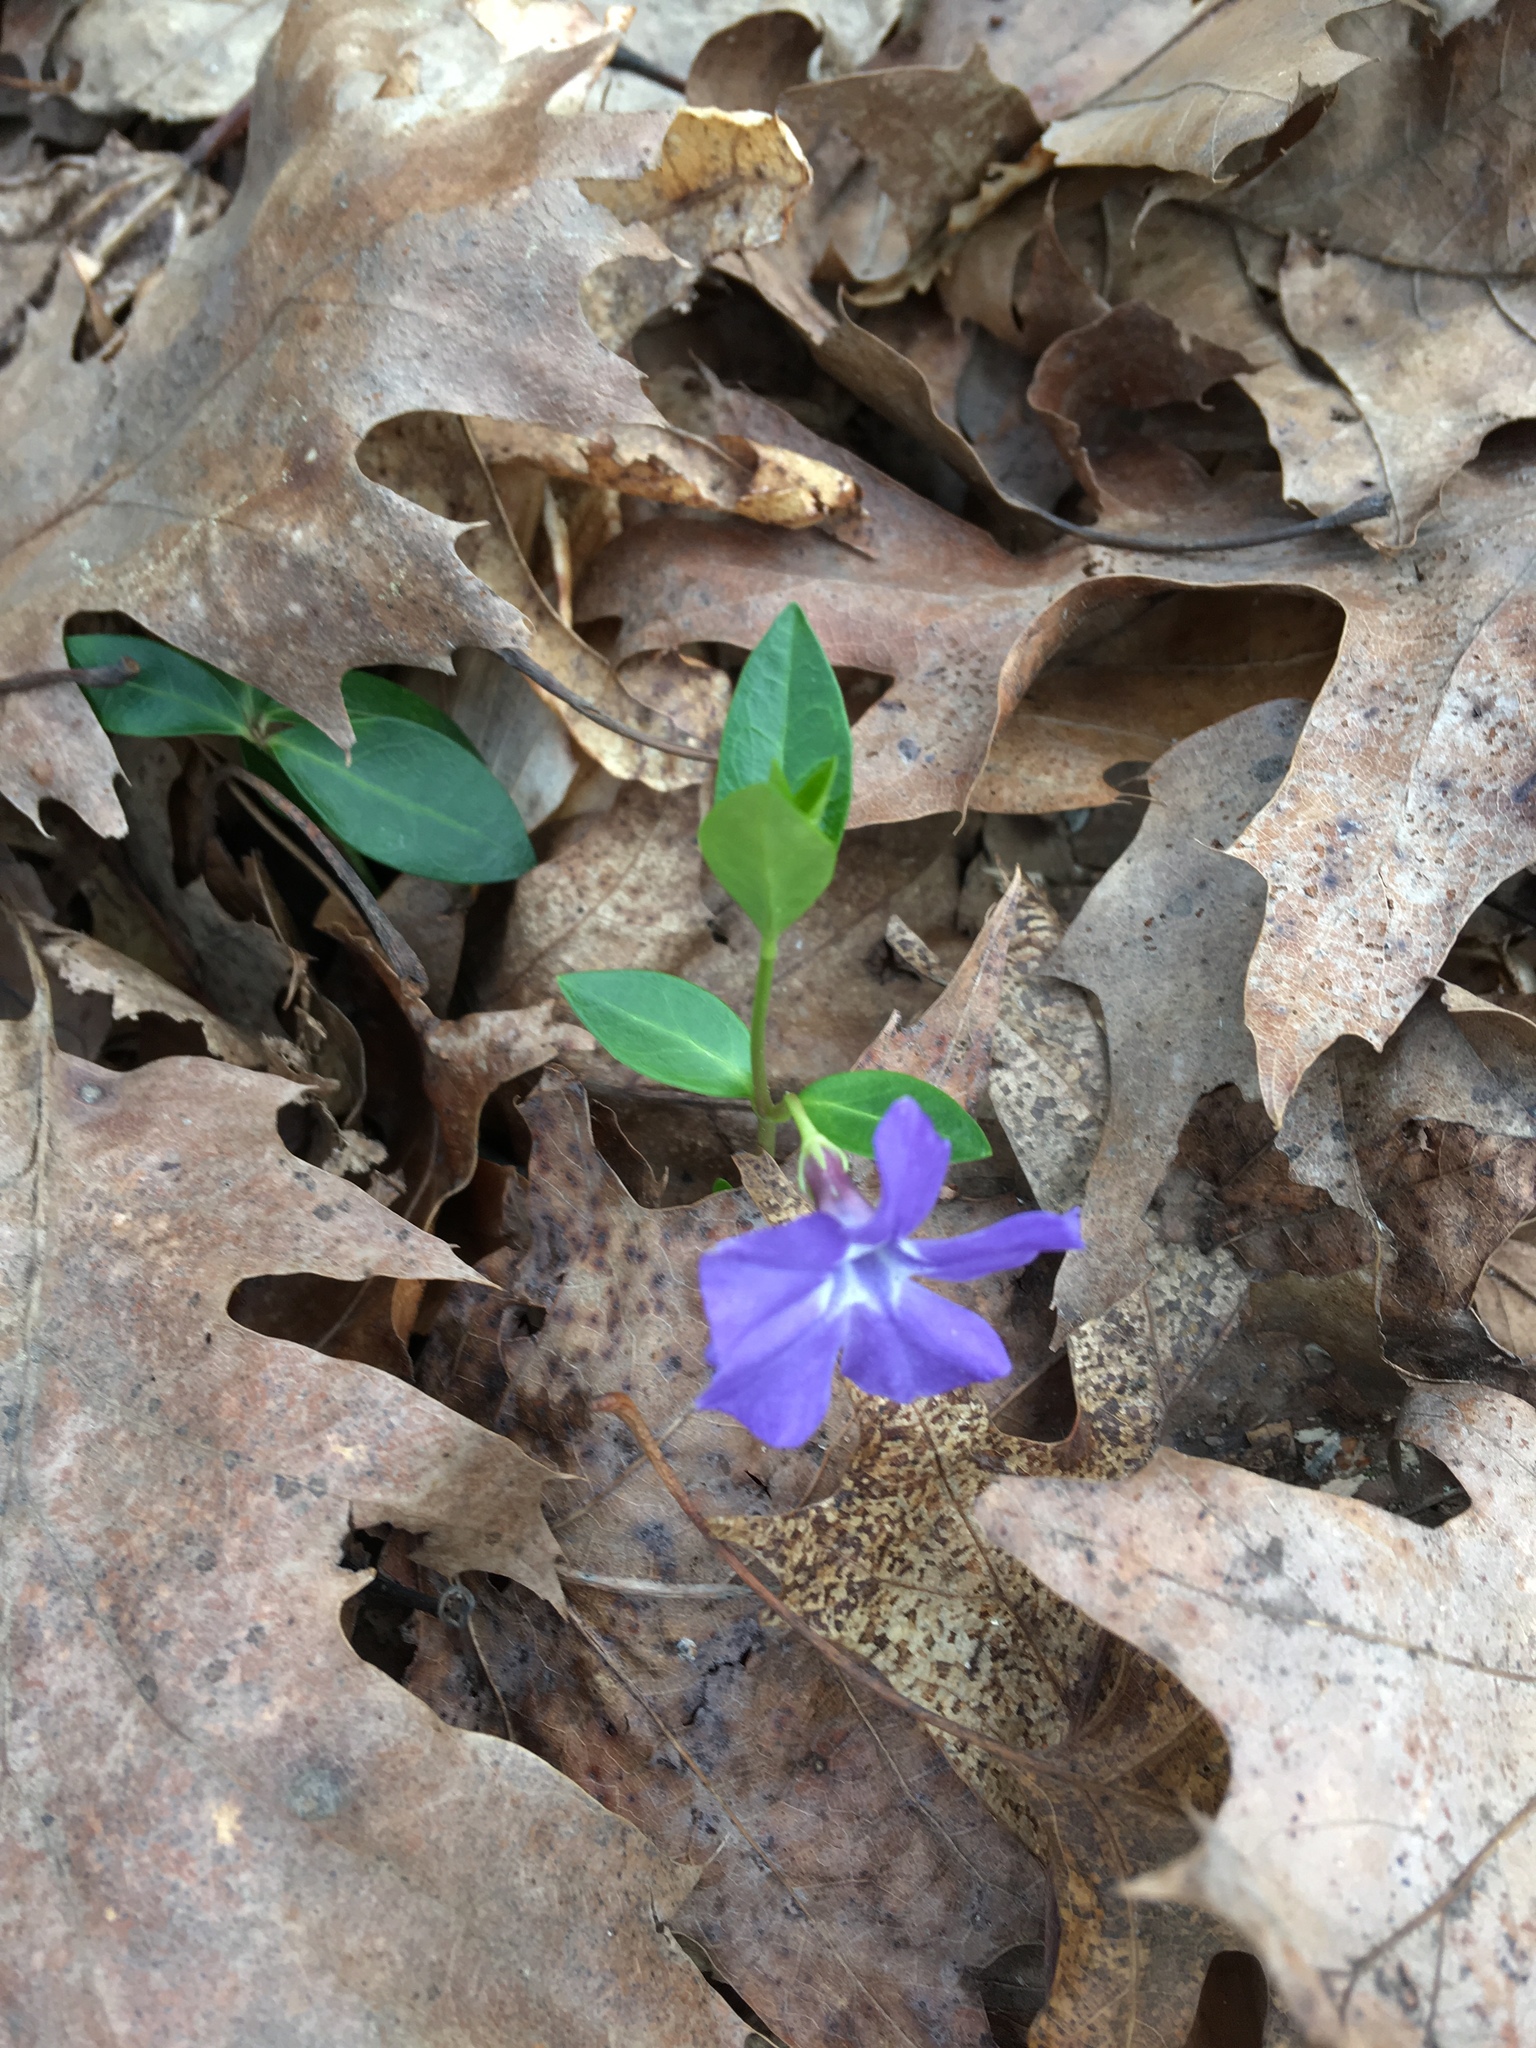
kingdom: Plantae
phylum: Tracheophyta
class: Magnoliopsida
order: Gentianales
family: Apocynaceae
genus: Vinca
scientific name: Vinca minor
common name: Lesser periwinkle
